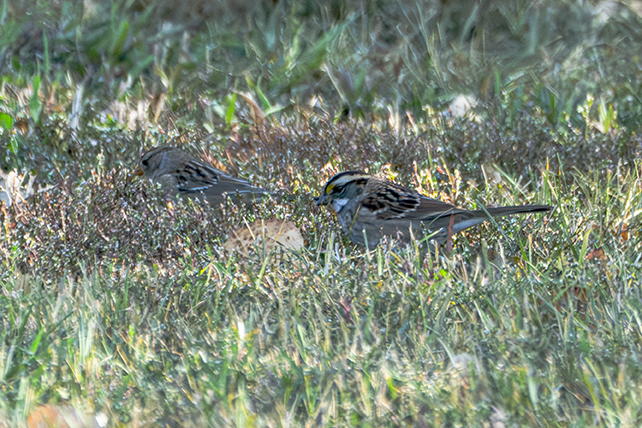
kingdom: Animalia
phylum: Chordata
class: Aves
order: Passeriformes
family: Passerellidae
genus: Zonotrichia
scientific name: Zonotrichia albicollis
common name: White-throated sparrow
